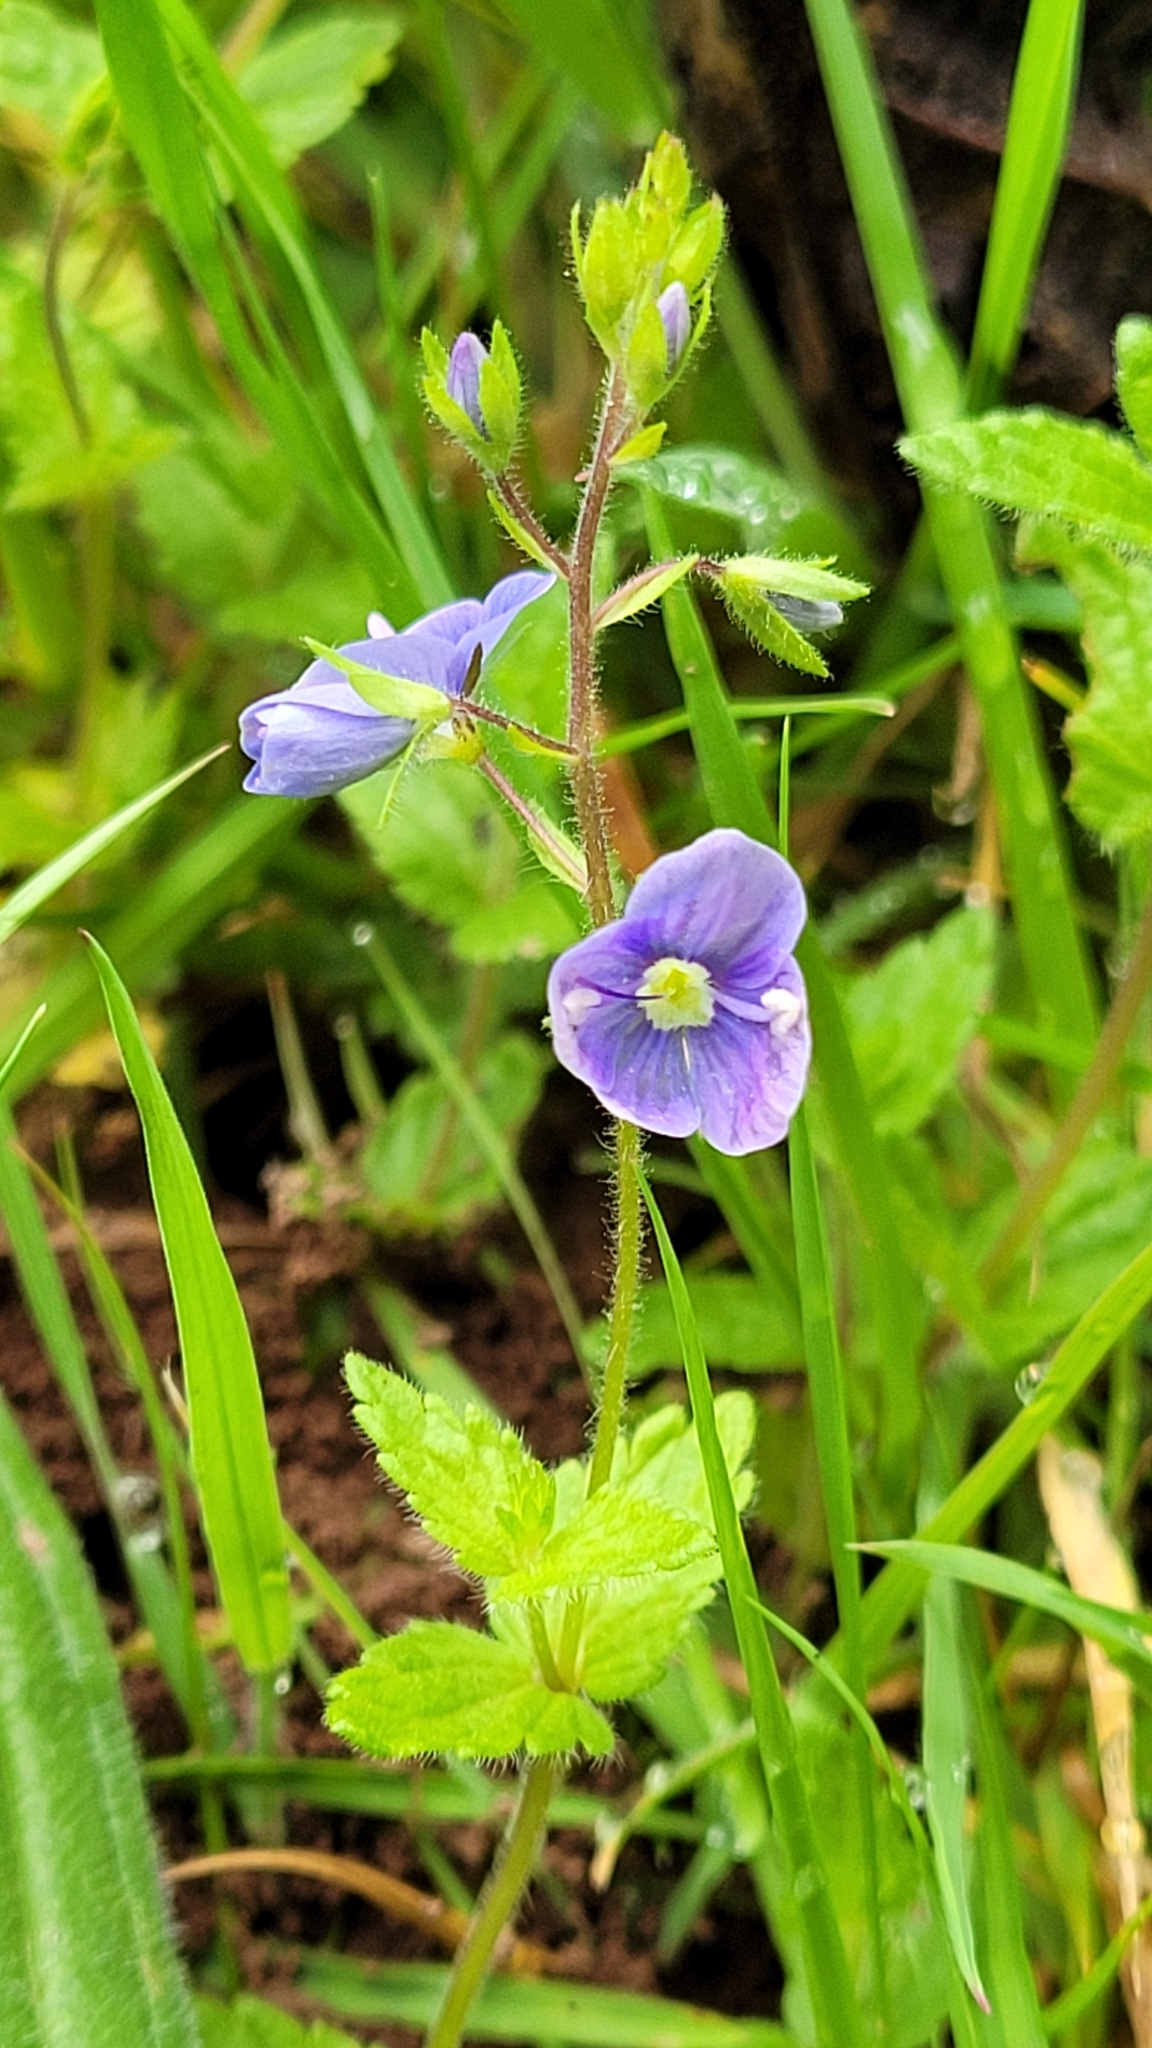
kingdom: Plantae
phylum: Tracheophyta
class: Magnoliopsida
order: Lamiales
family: Plantaginaceae
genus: Veronica
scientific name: Veronica chamaedrys
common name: Germander speedwell
